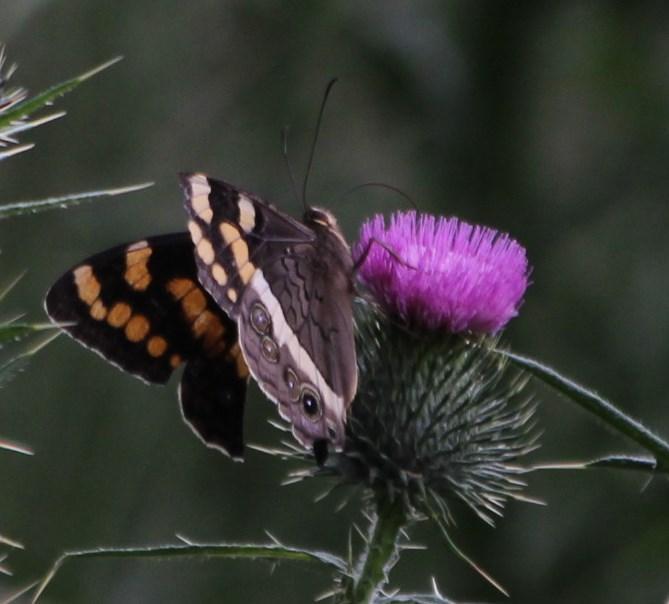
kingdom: Animalia
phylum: Arthropoda
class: Insecta
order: Lepidoptera
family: Nymphalidae
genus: Meneris
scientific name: Meneris Aeropetes tulbaghia
